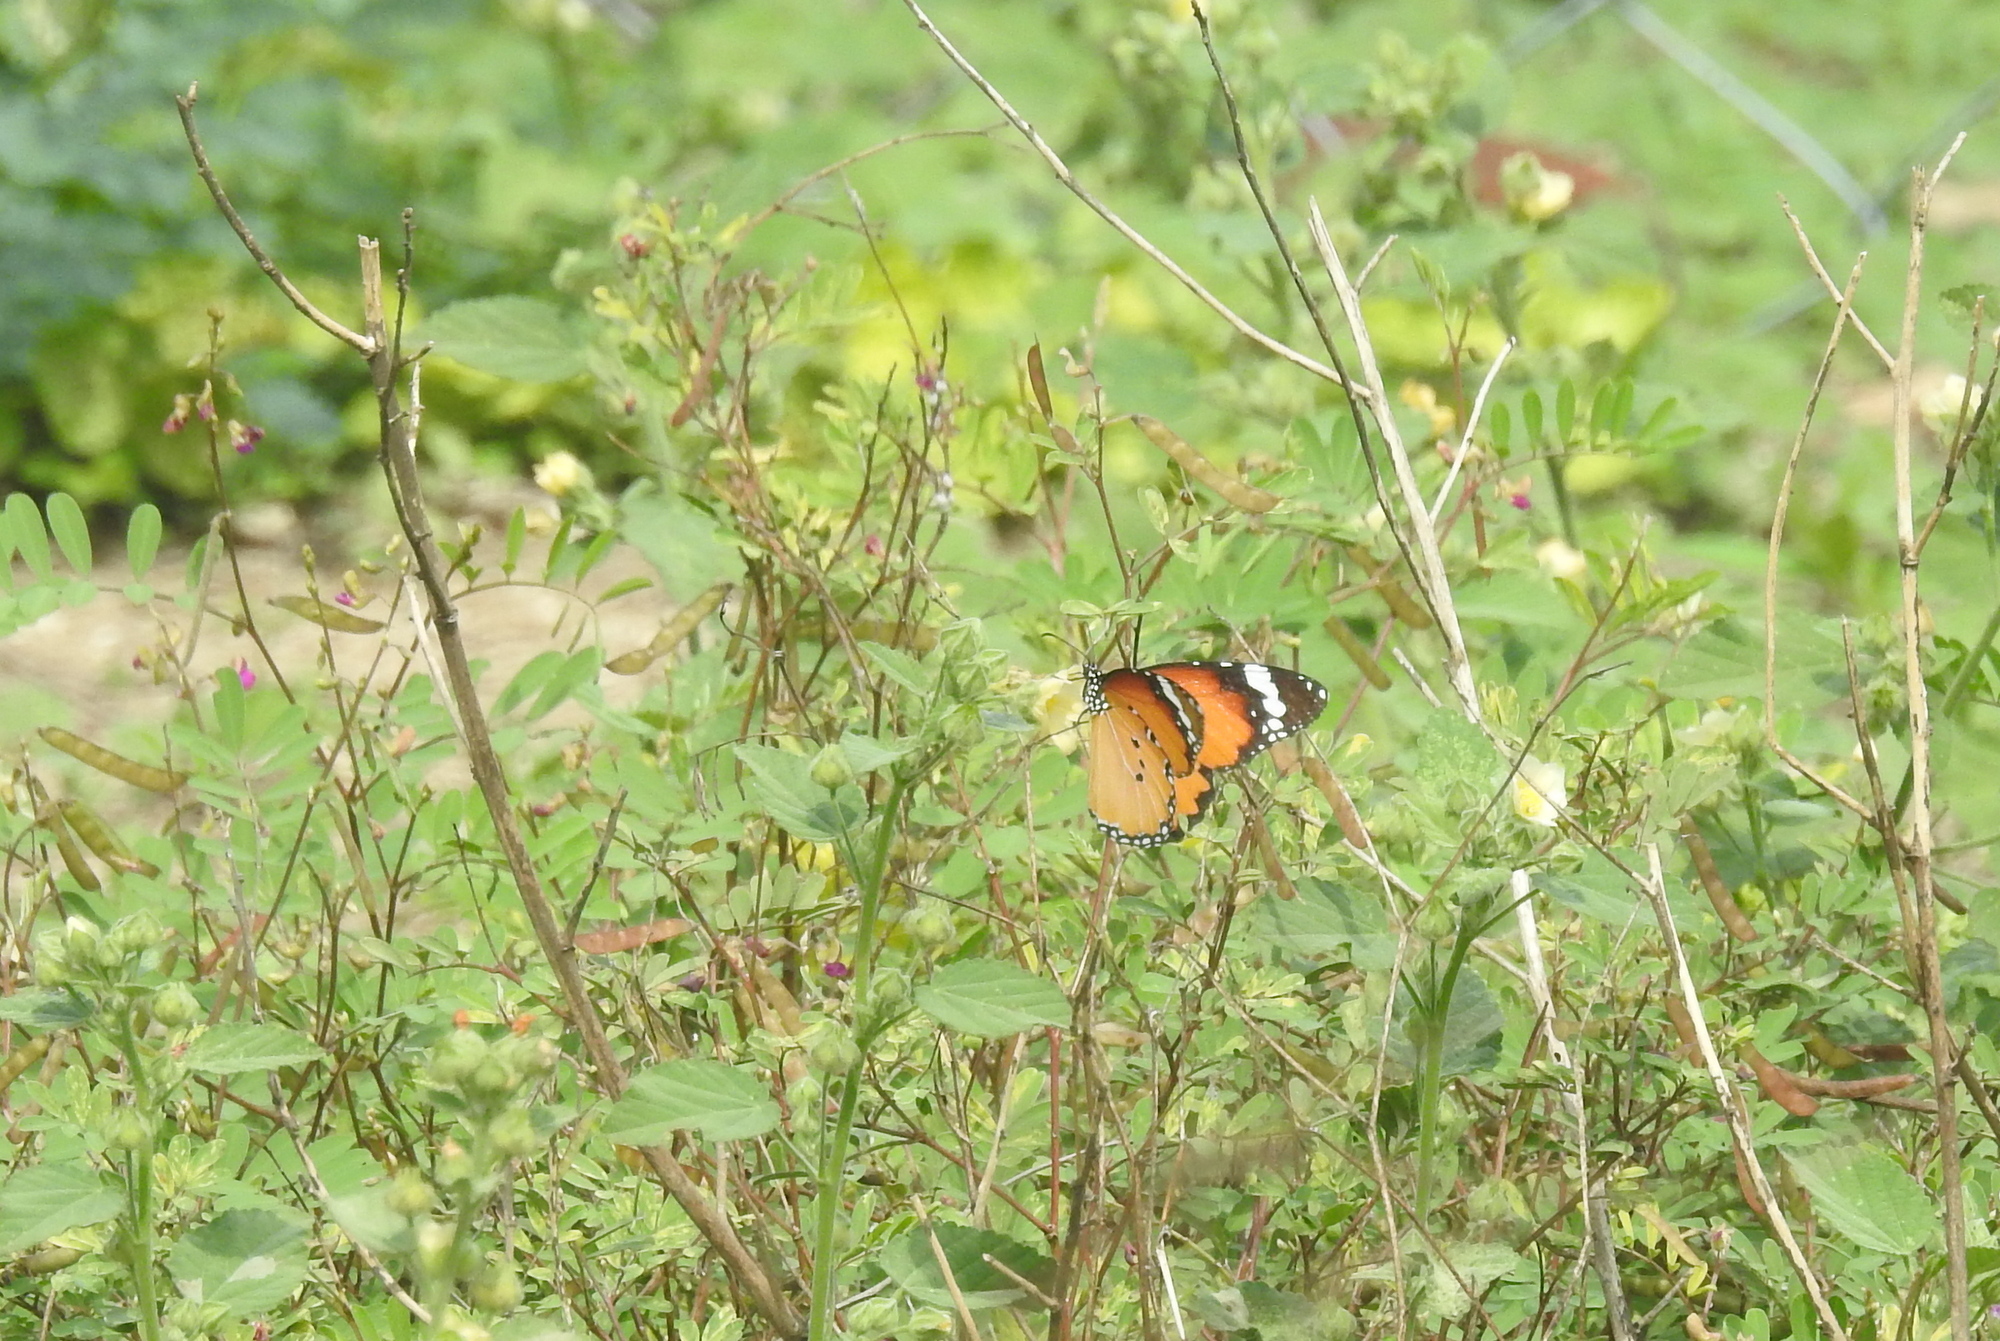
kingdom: Animalia
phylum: Arthropoda
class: Insecta
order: Lepidoptera
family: Nymphalidae
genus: Danaus
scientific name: Danaus chrysippus
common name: Plain tiger
